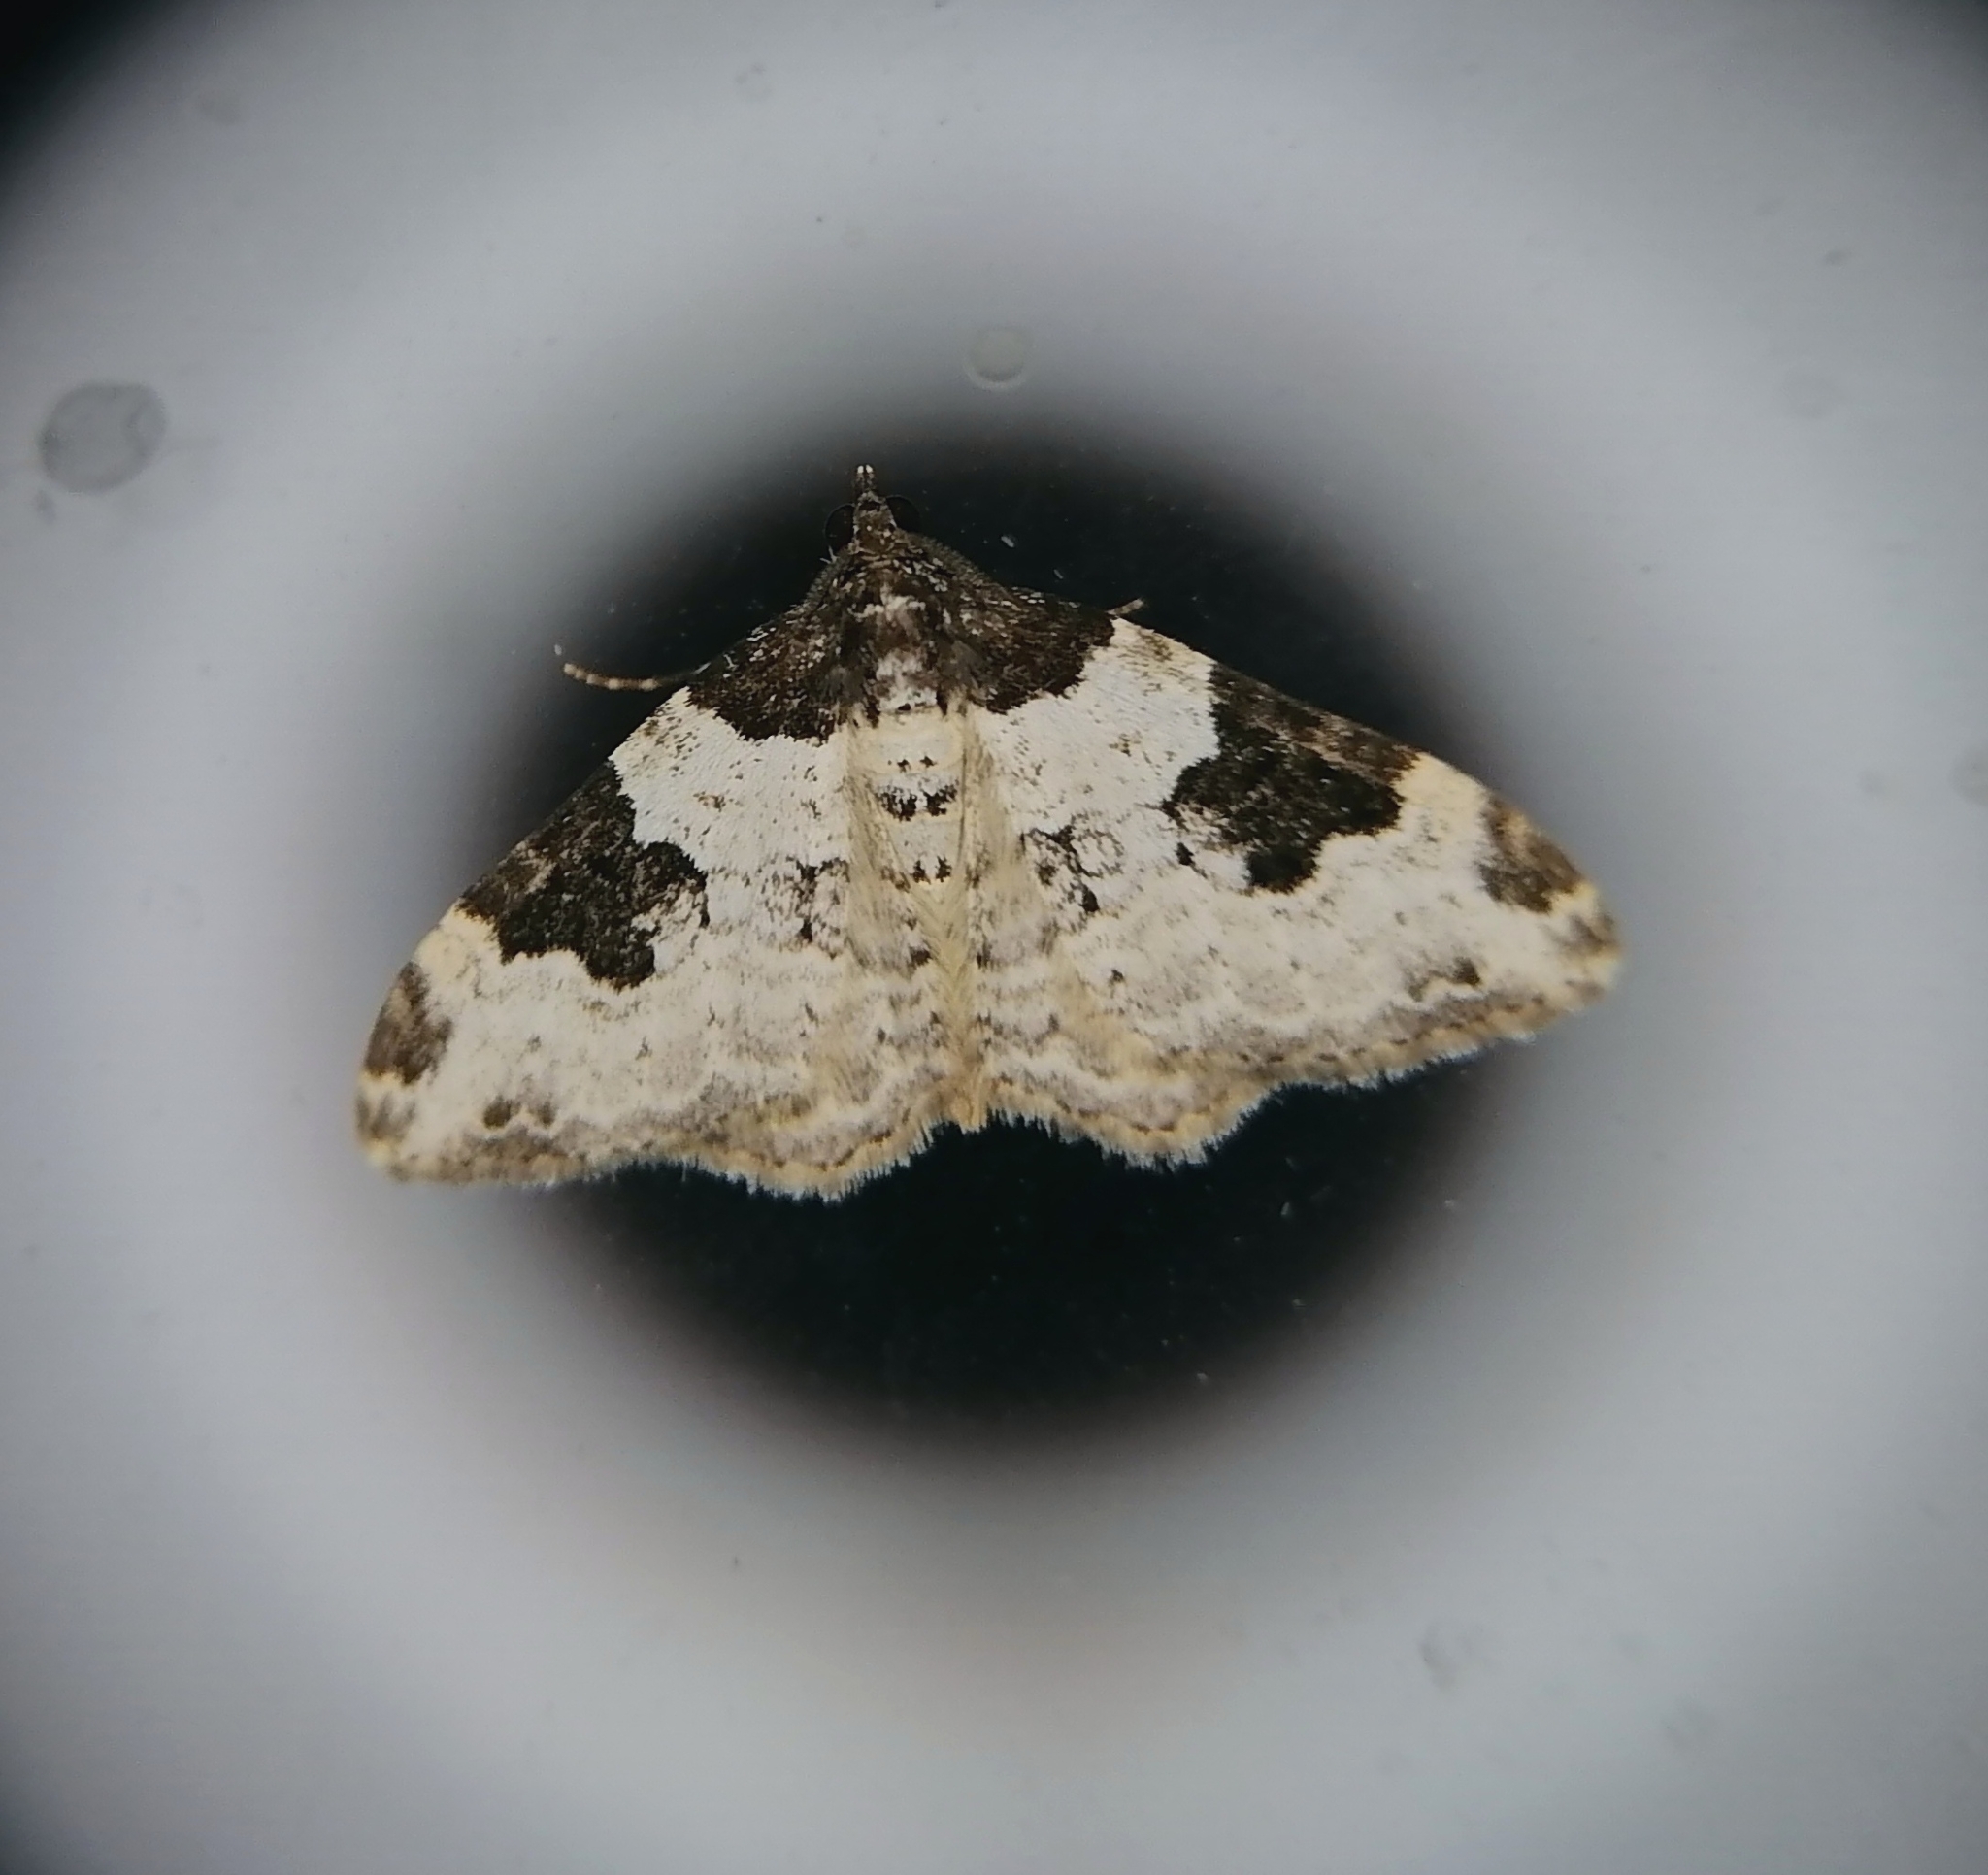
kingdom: Animalia
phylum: Arthropoda
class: Insecta
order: Lepidoptera
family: Geometridae
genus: Xanthorhoe
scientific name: Xanthorhoe fluctuata
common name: Garden carpet
